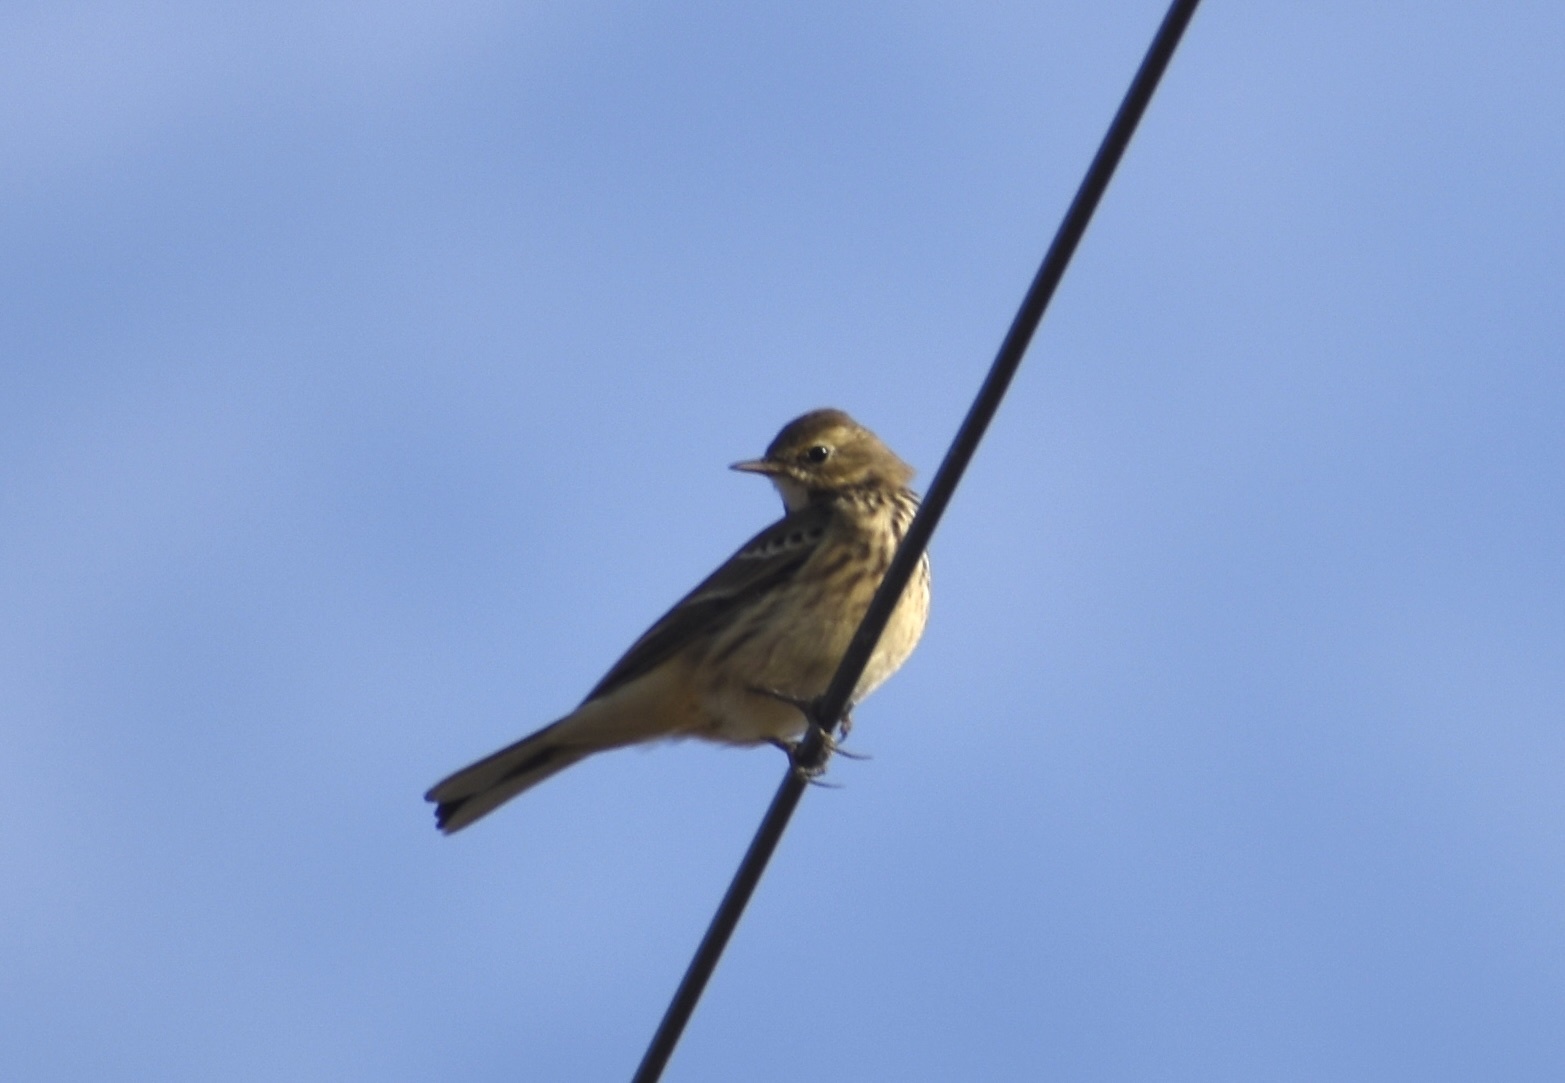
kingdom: Animalia
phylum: Chordata
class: Aves
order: Passeriformes
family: Motacillidae
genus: Anthus
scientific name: Anthus rubescens
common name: Buff-bellied pipit
